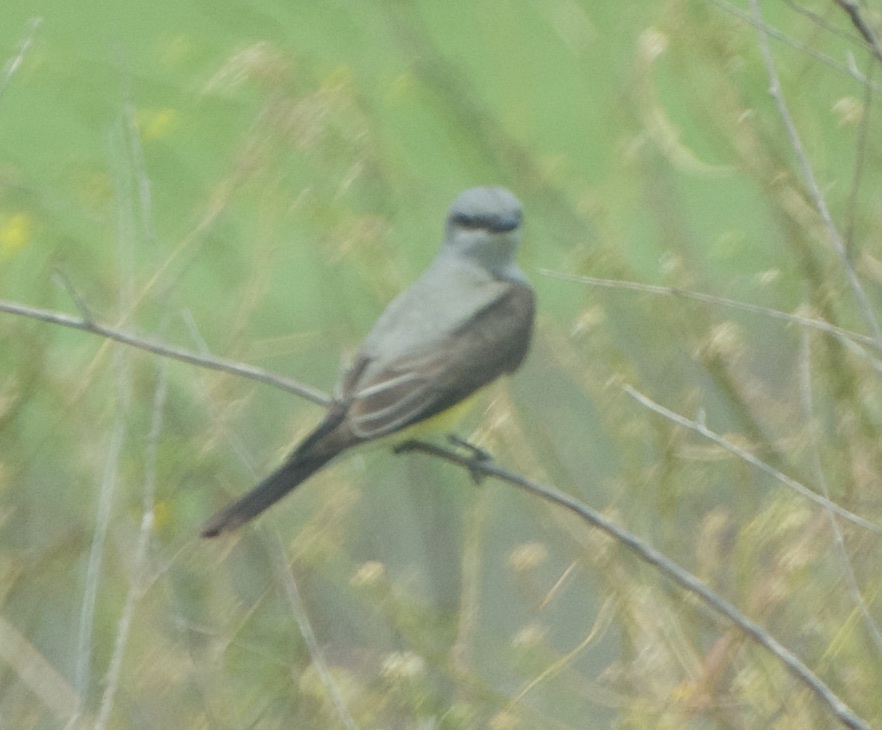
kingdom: Animalia
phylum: Chordata
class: Aves
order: Passeriformes
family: Tyrannidae
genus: Tyrannus
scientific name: Tyrannus verticalis
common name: Western kingbird
